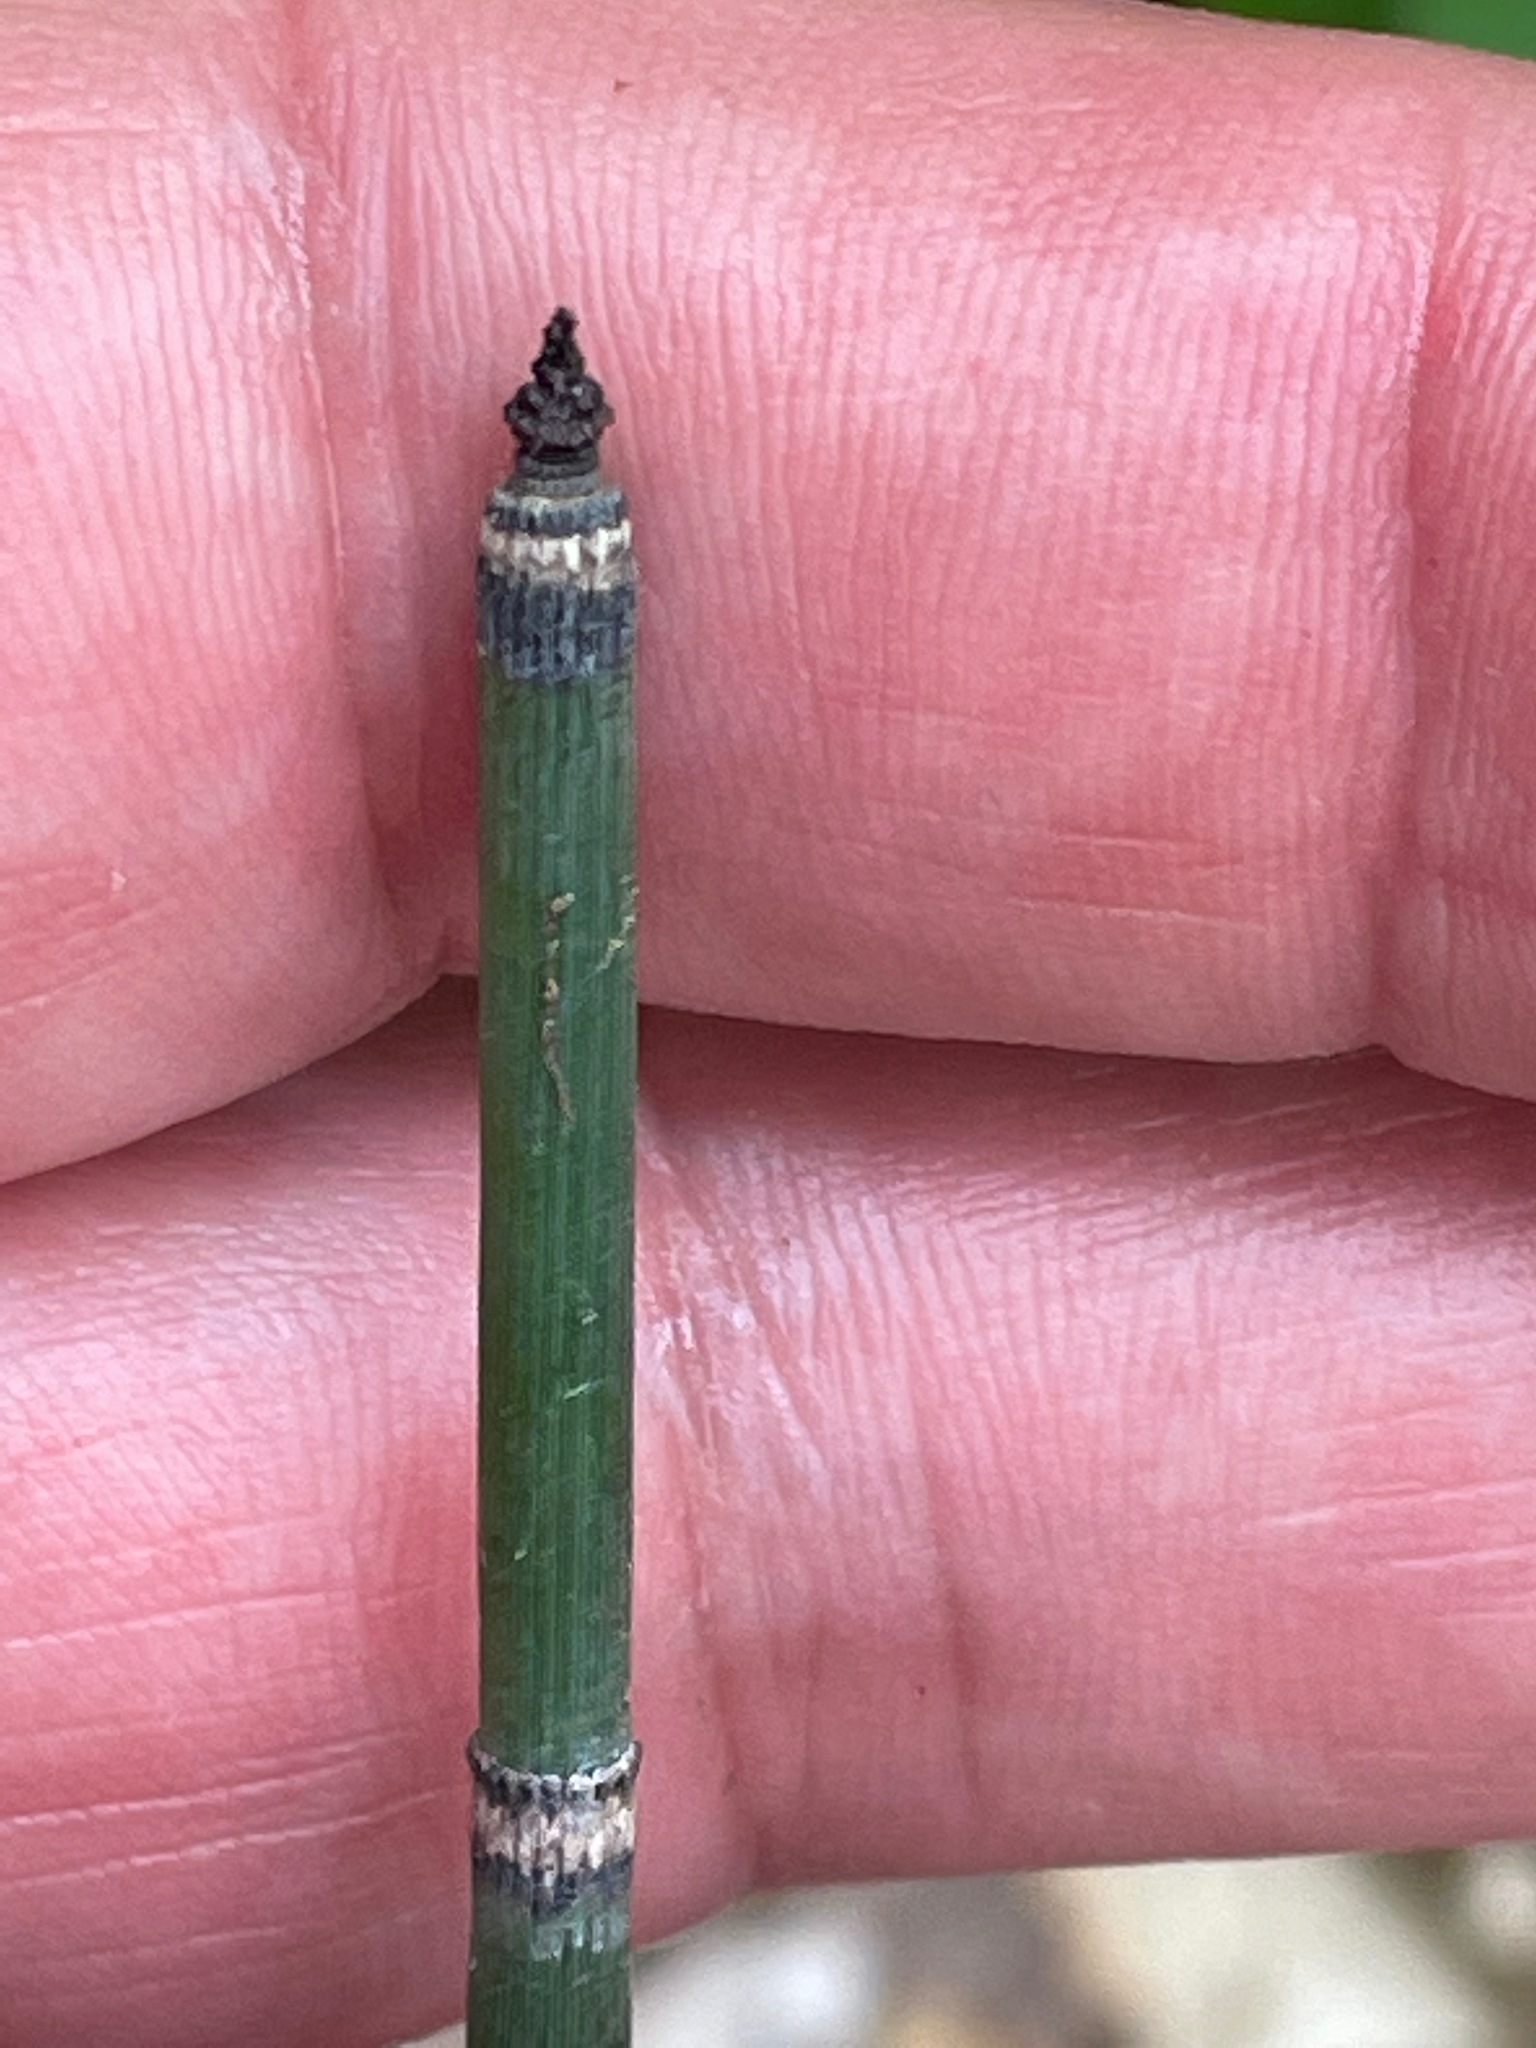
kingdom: Plantae
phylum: Tracheophyta
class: Polypodiopsida
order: Equisetales
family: Equisetaceae
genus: Equisetum
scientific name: Equisetum hyemale
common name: Rough horsetail
